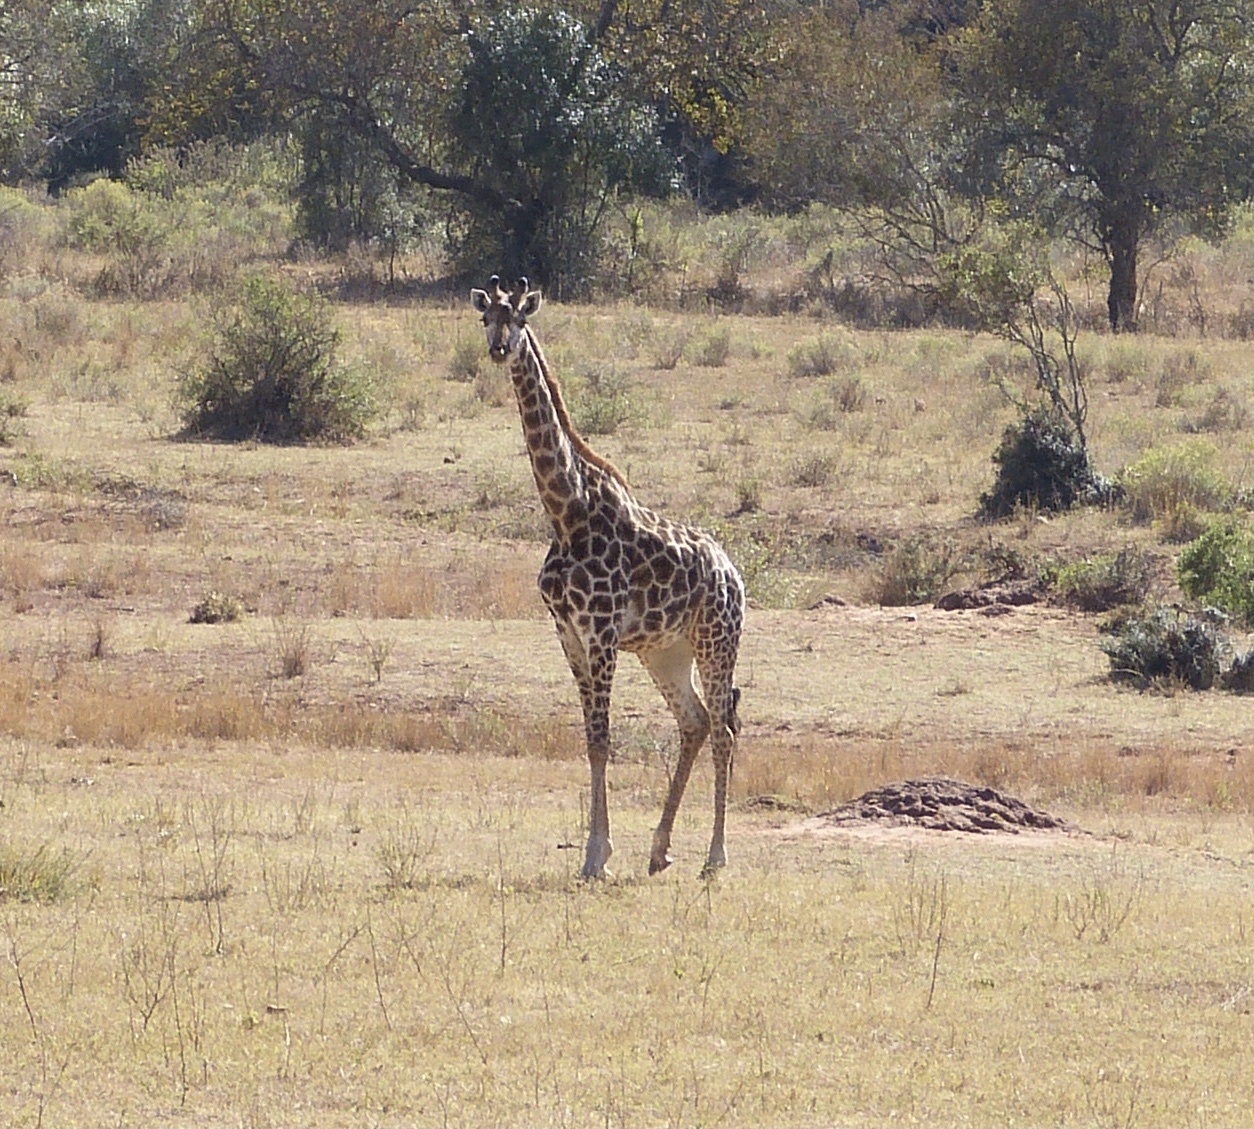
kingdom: Animalia
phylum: Chordata
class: Mammalia
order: Artiodactyla
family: Giraffidae
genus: Giraffa
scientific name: Giraffa giraffa
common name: Southern giraffe
